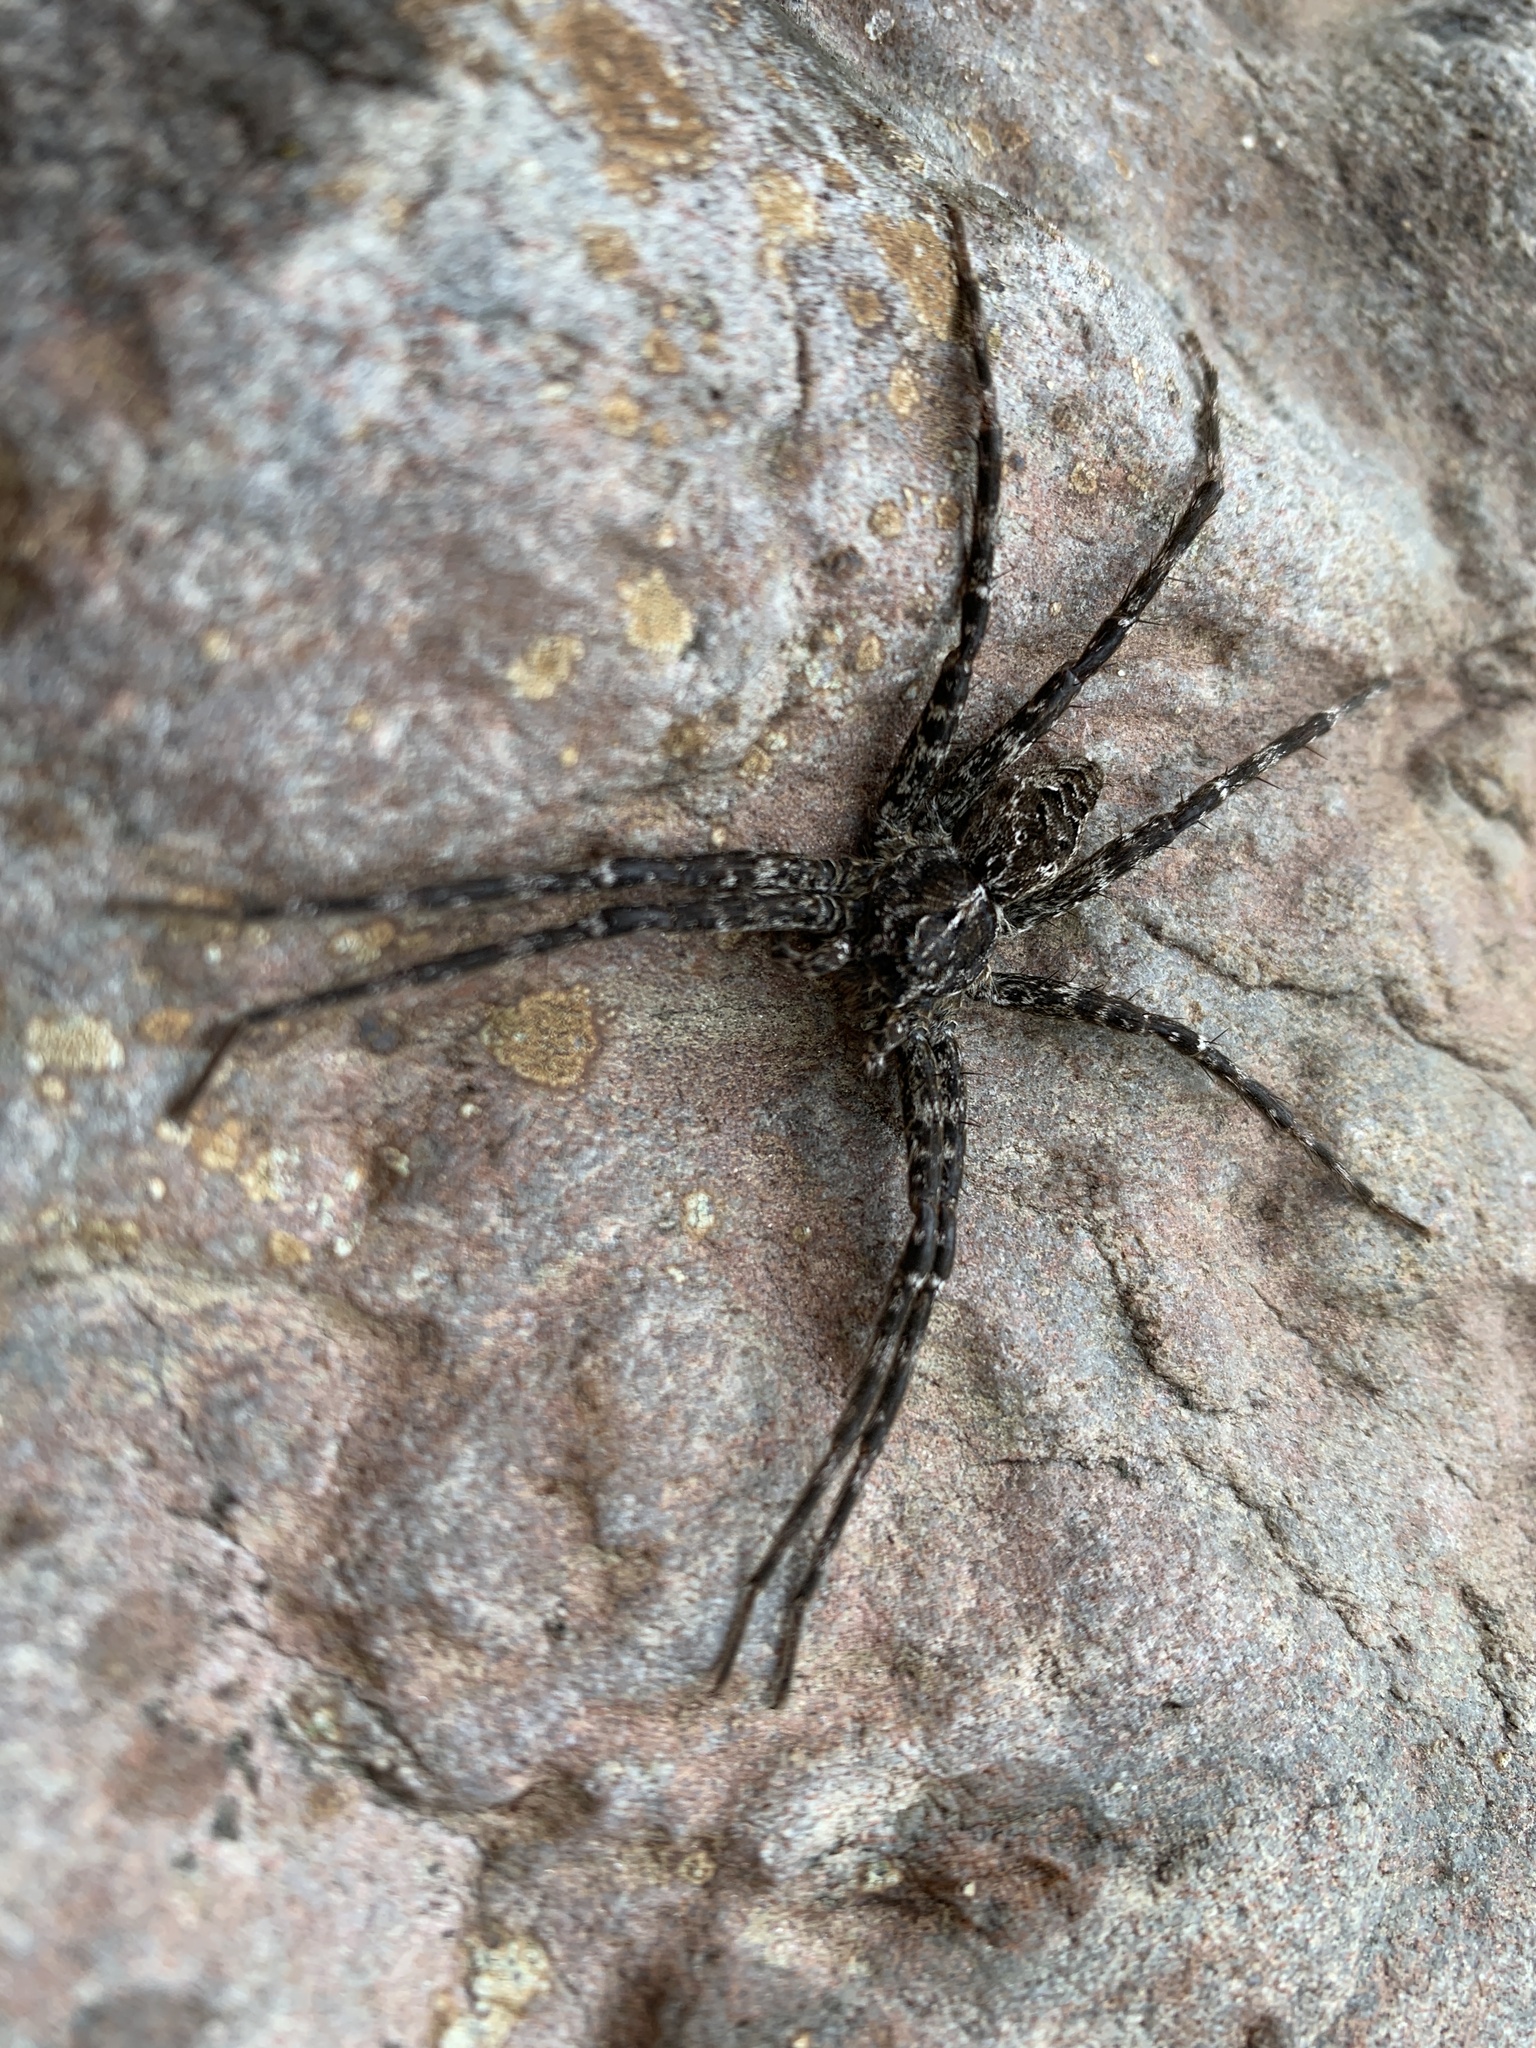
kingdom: Animalia
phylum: Arthropoda
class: Arachnida
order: Araneae
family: Pisauridae
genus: Dolomedes
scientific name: Dolomedes scriptus
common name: Striped fishing spider
